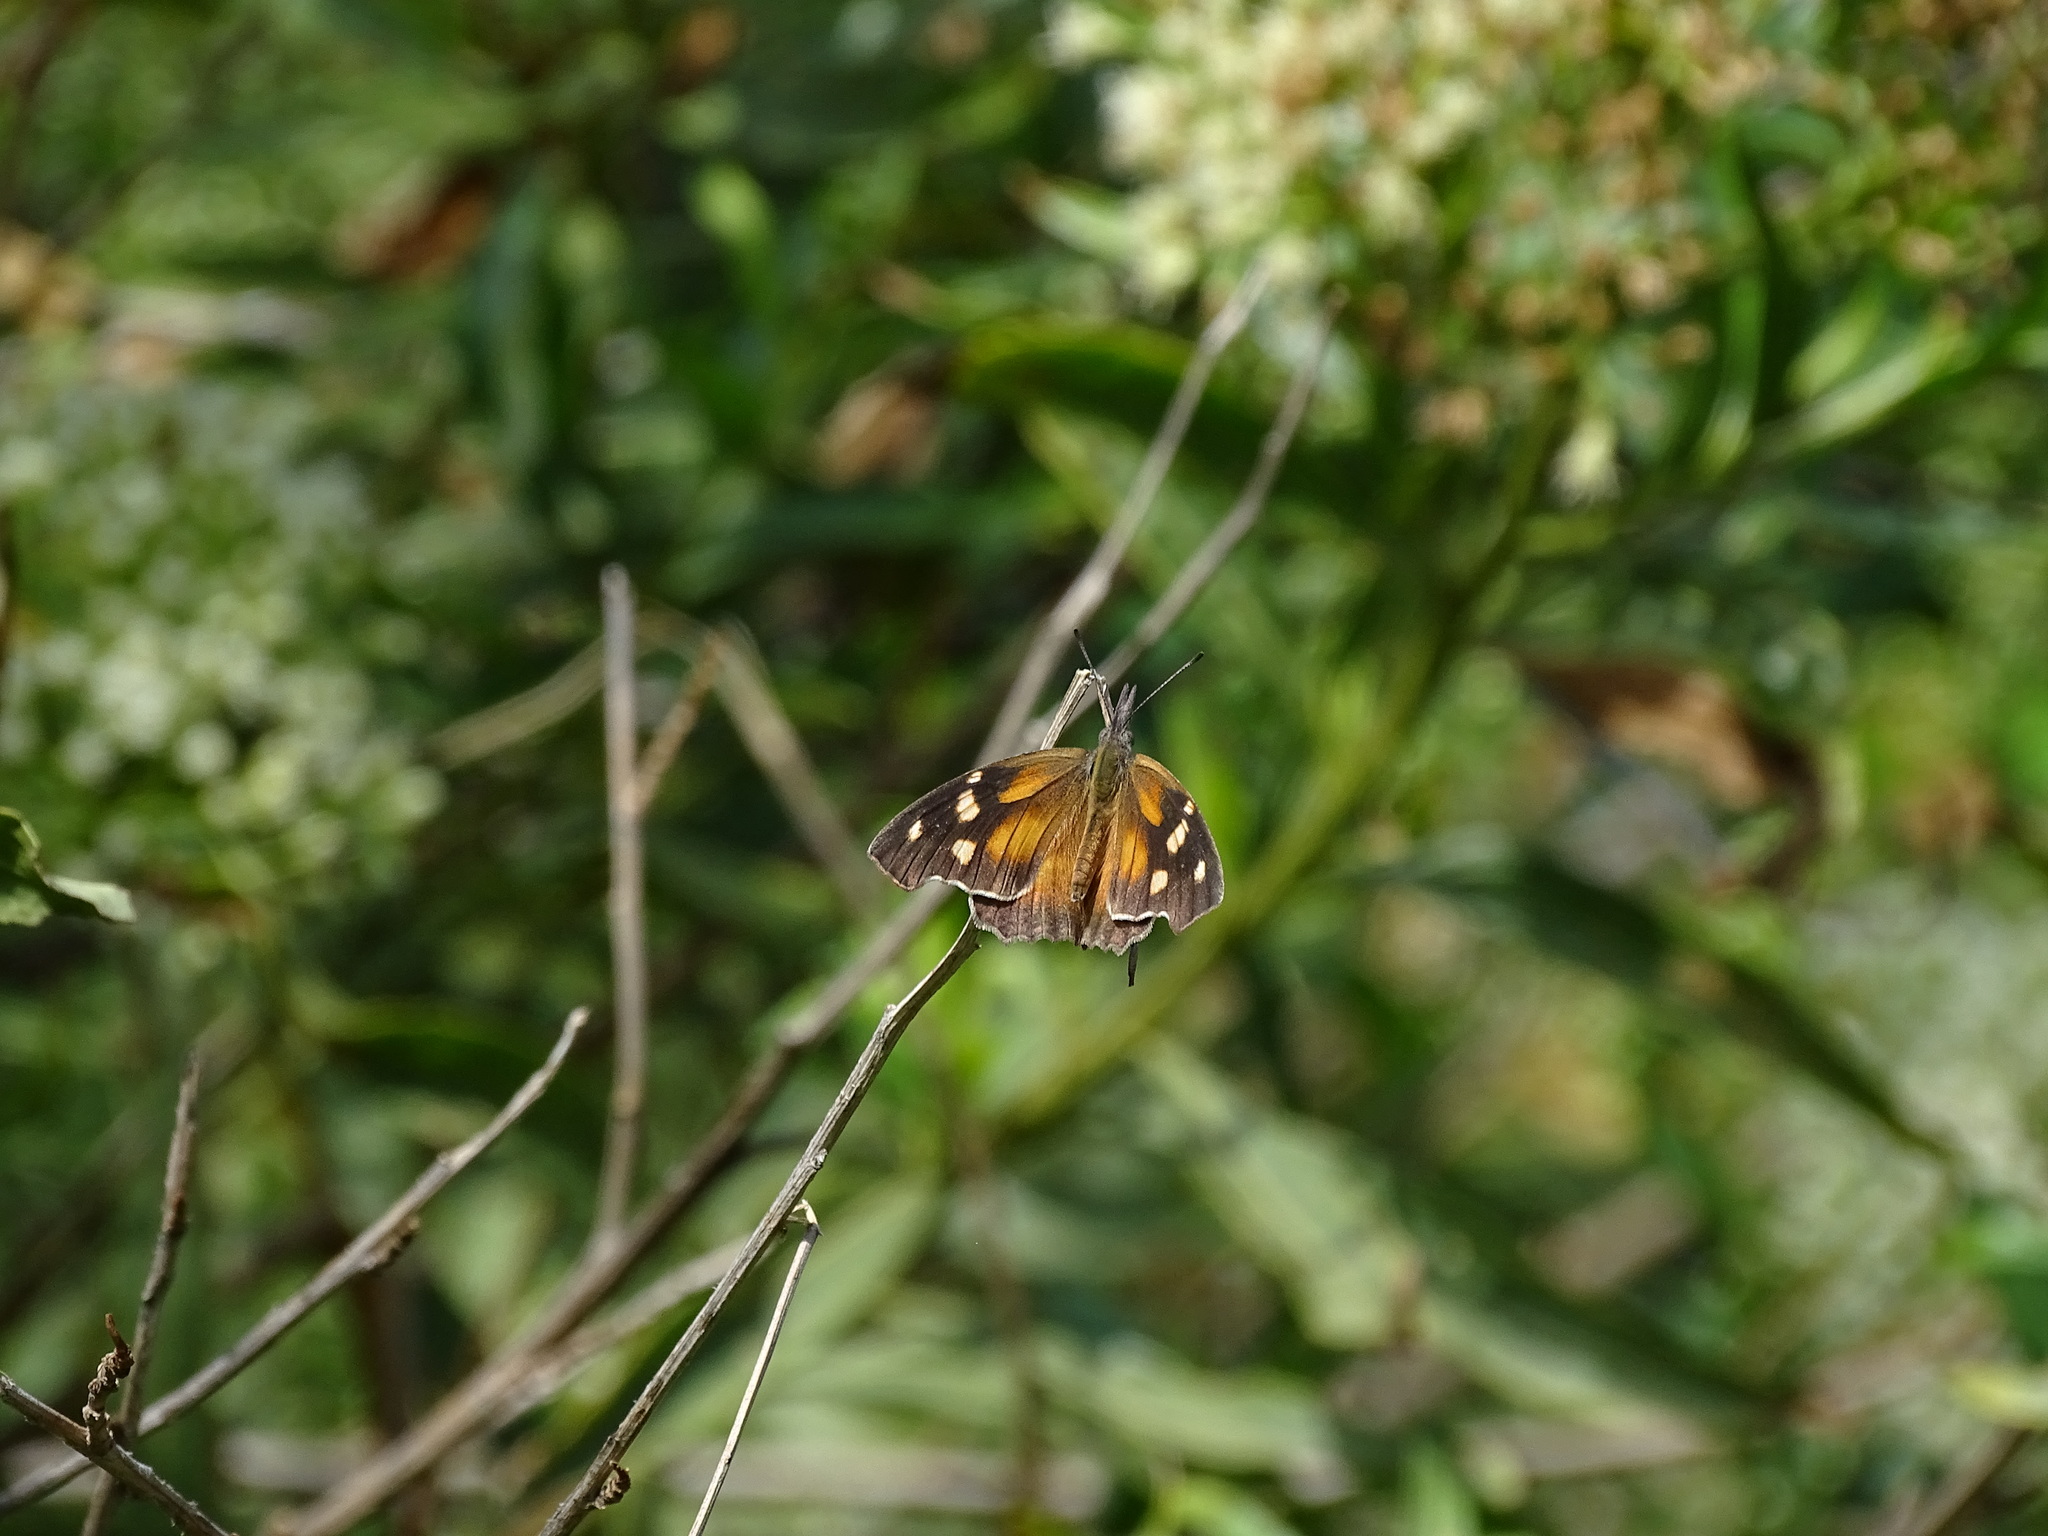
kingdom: Animalia
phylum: Arthropoda
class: Insecta
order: Lepidoptera
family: Nymphalidae
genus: Libytheana
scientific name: Libytheana carinenta
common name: American snout
